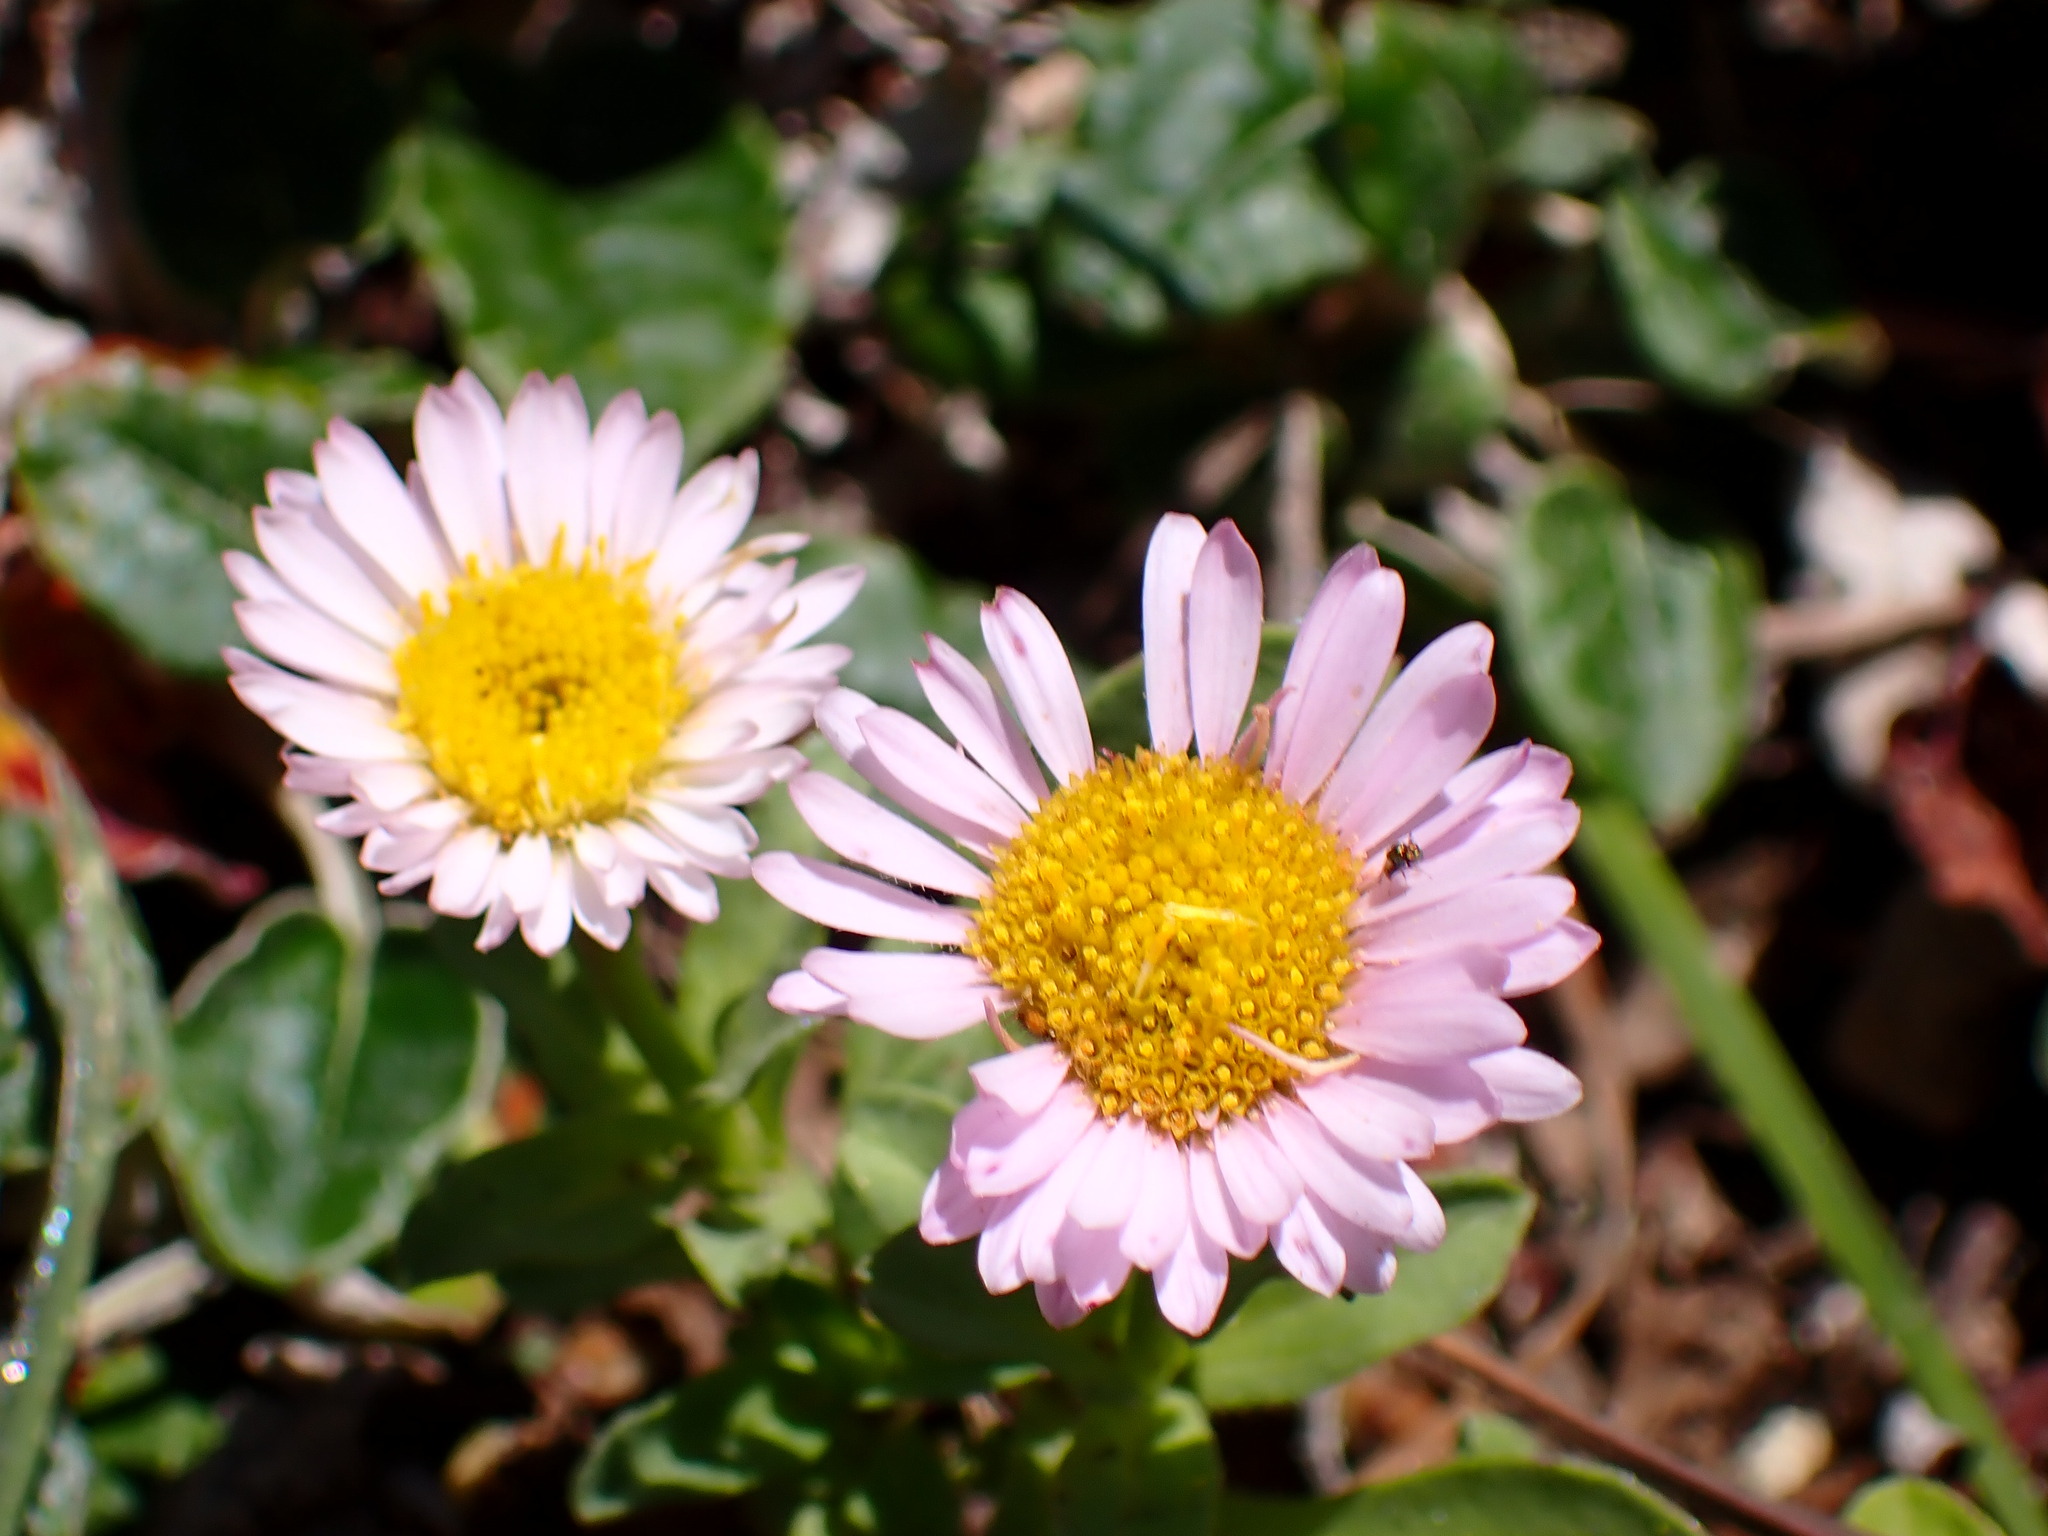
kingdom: Plantae
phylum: Tracheophyta
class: Magnoliopsida
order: Asterales
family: Asteraceae
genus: Erigeron
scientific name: Erigeron glaucus
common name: Seaside daisy
